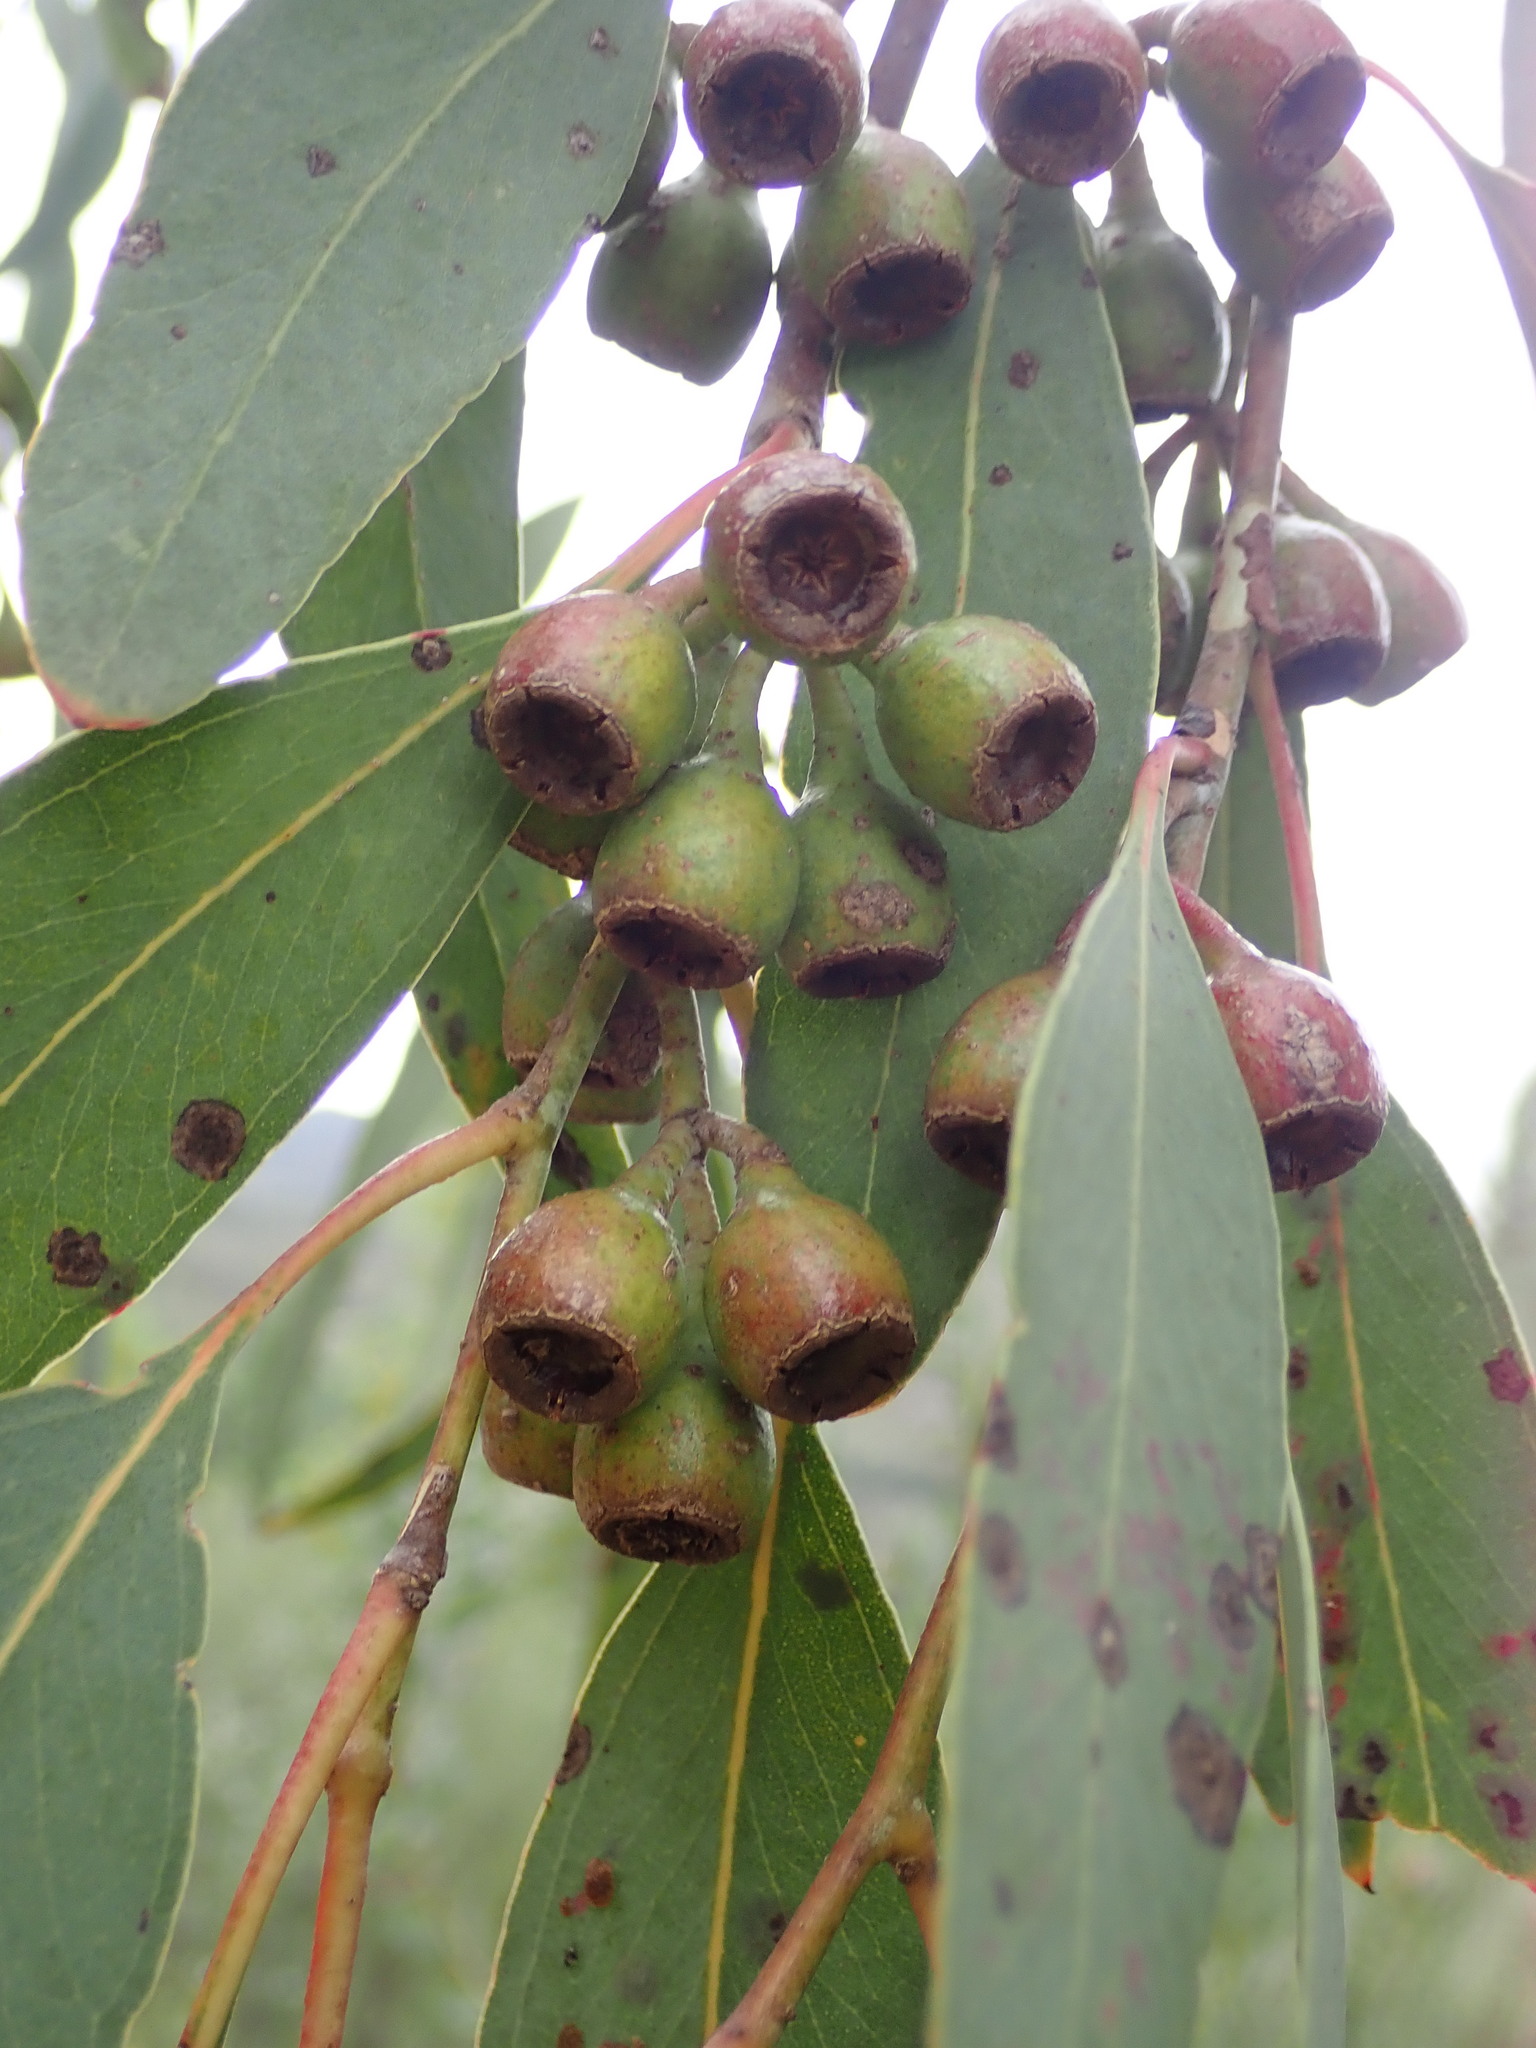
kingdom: Plantae
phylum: Tracheophyta
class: Magnoliopsida
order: Myrtales
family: Myrtaceae
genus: Eucalyptus
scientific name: Eucalyptus sideroxylon
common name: Red ironbark
